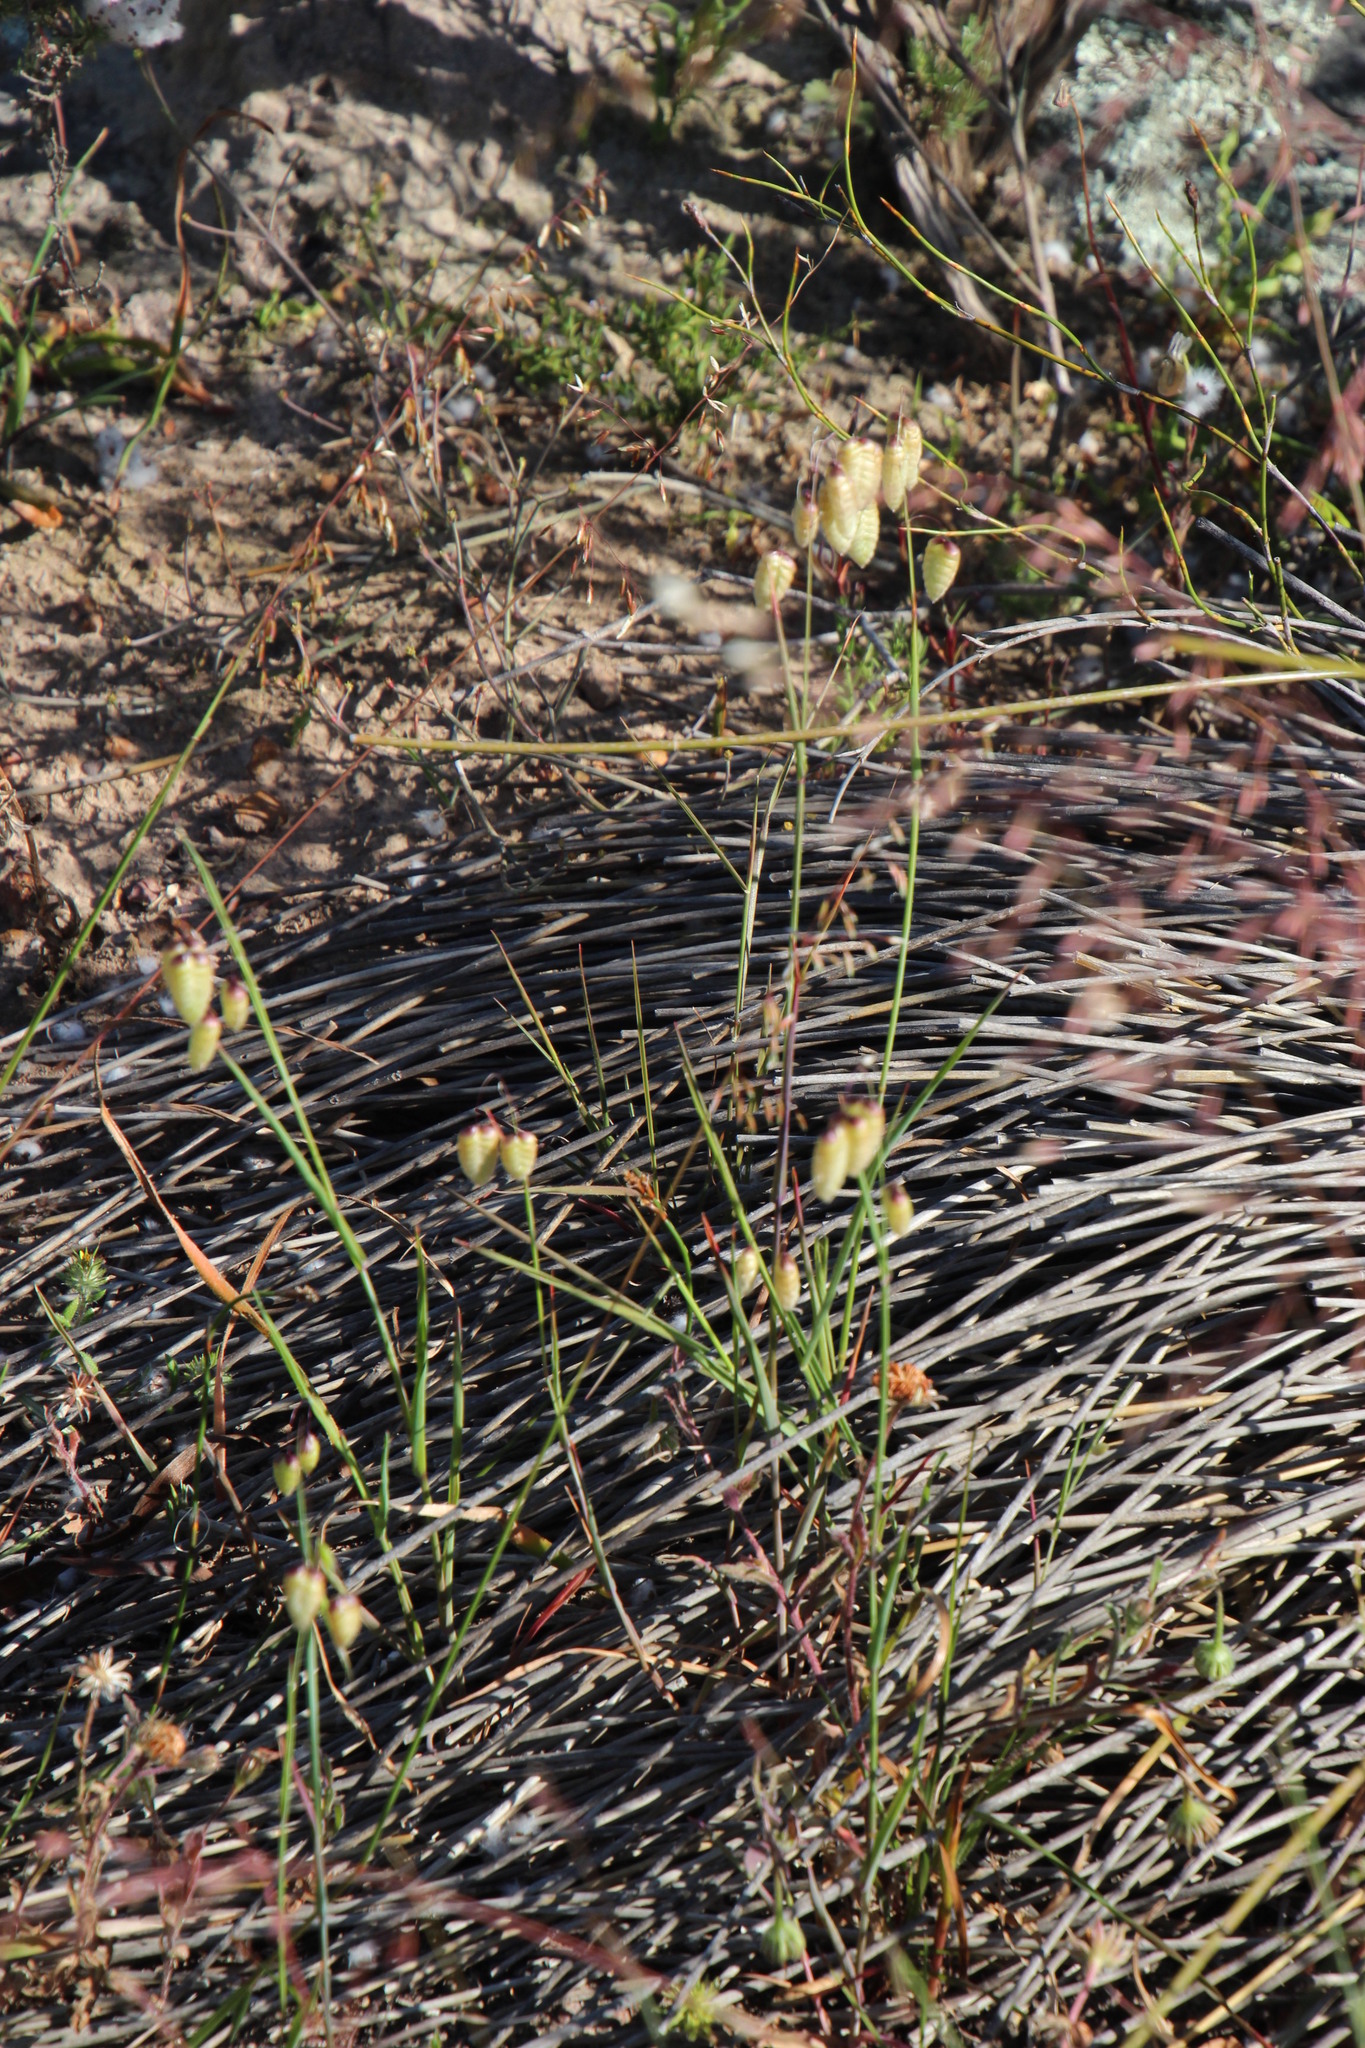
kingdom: Plantae
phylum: Tracheophyta
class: Liliopsida
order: Poales
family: Poaceae
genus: Briza
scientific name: Briza maxima
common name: Big quakinggrass
